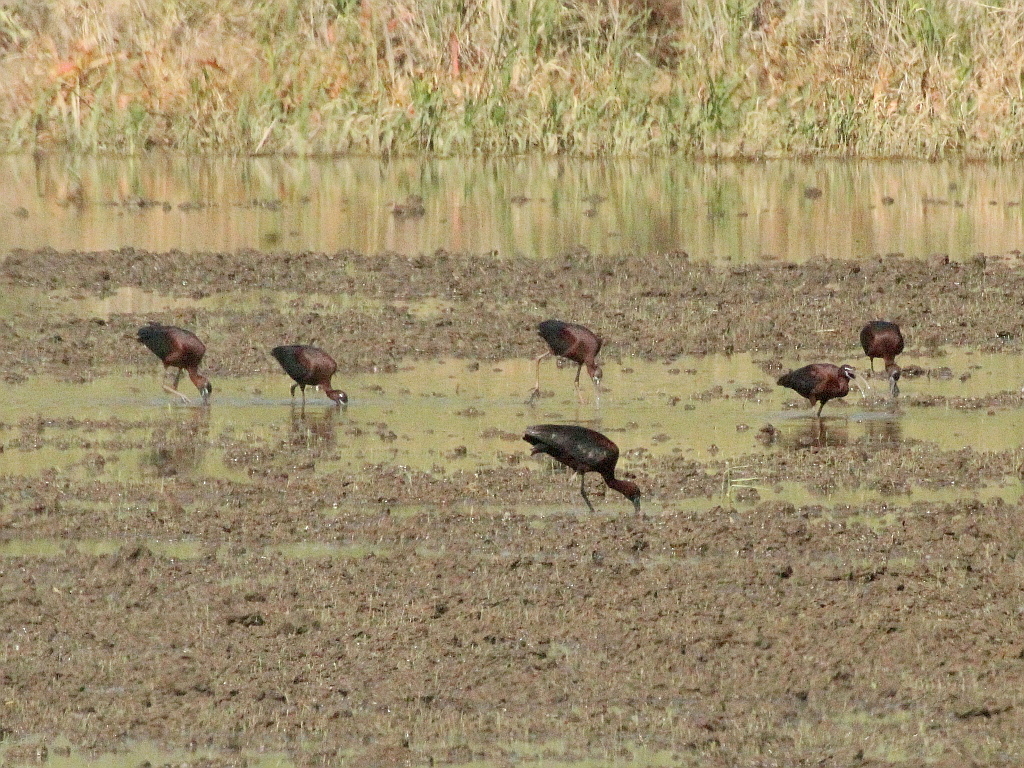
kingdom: Animalia
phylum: Chordata
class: Aves
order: Pelecaniformes
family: Threskiornithidae
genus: Plegadis
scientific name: Plegadis falcinellus
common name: Glossy ibis
